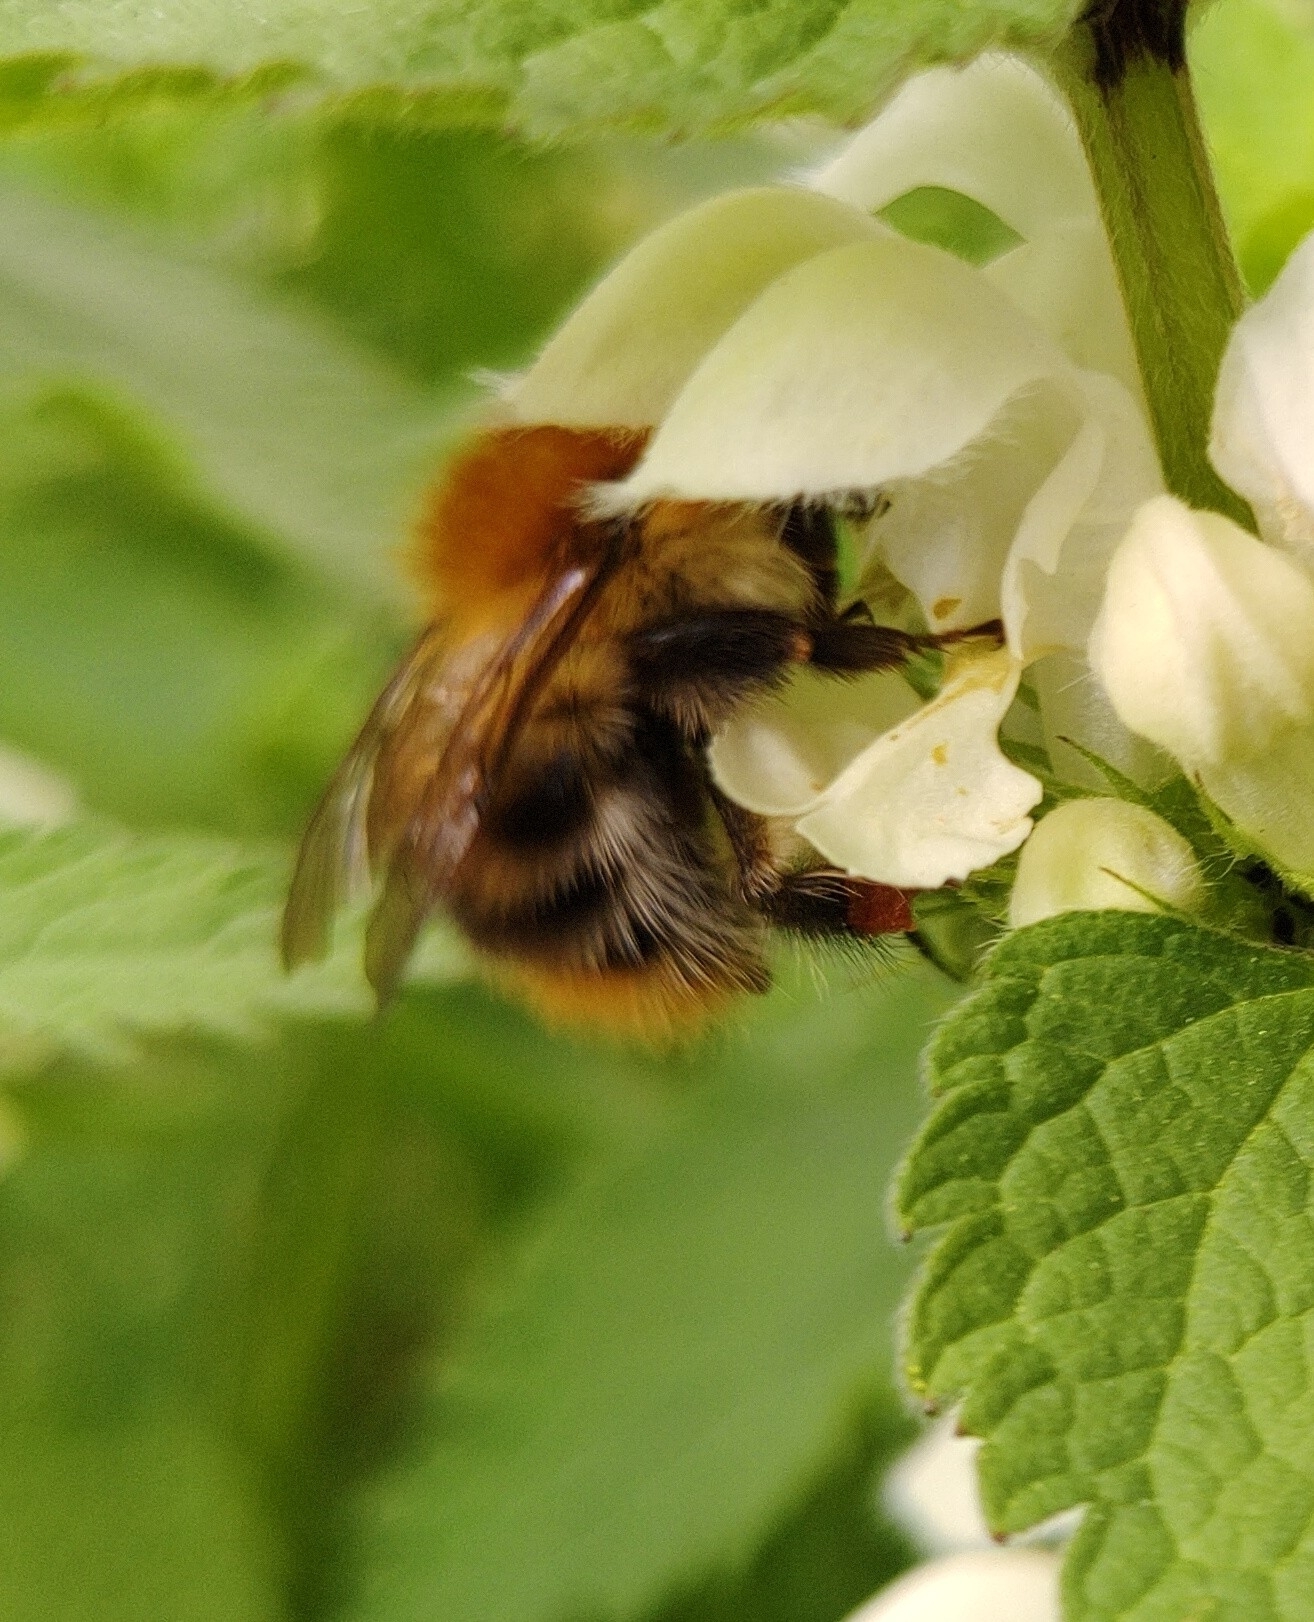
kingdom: Animalia
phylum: Arthropoda
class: Insecta
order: Hymenoptera
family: Apidae
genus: Bombus
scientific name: Bombus pascuorum
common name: Common carder bee
